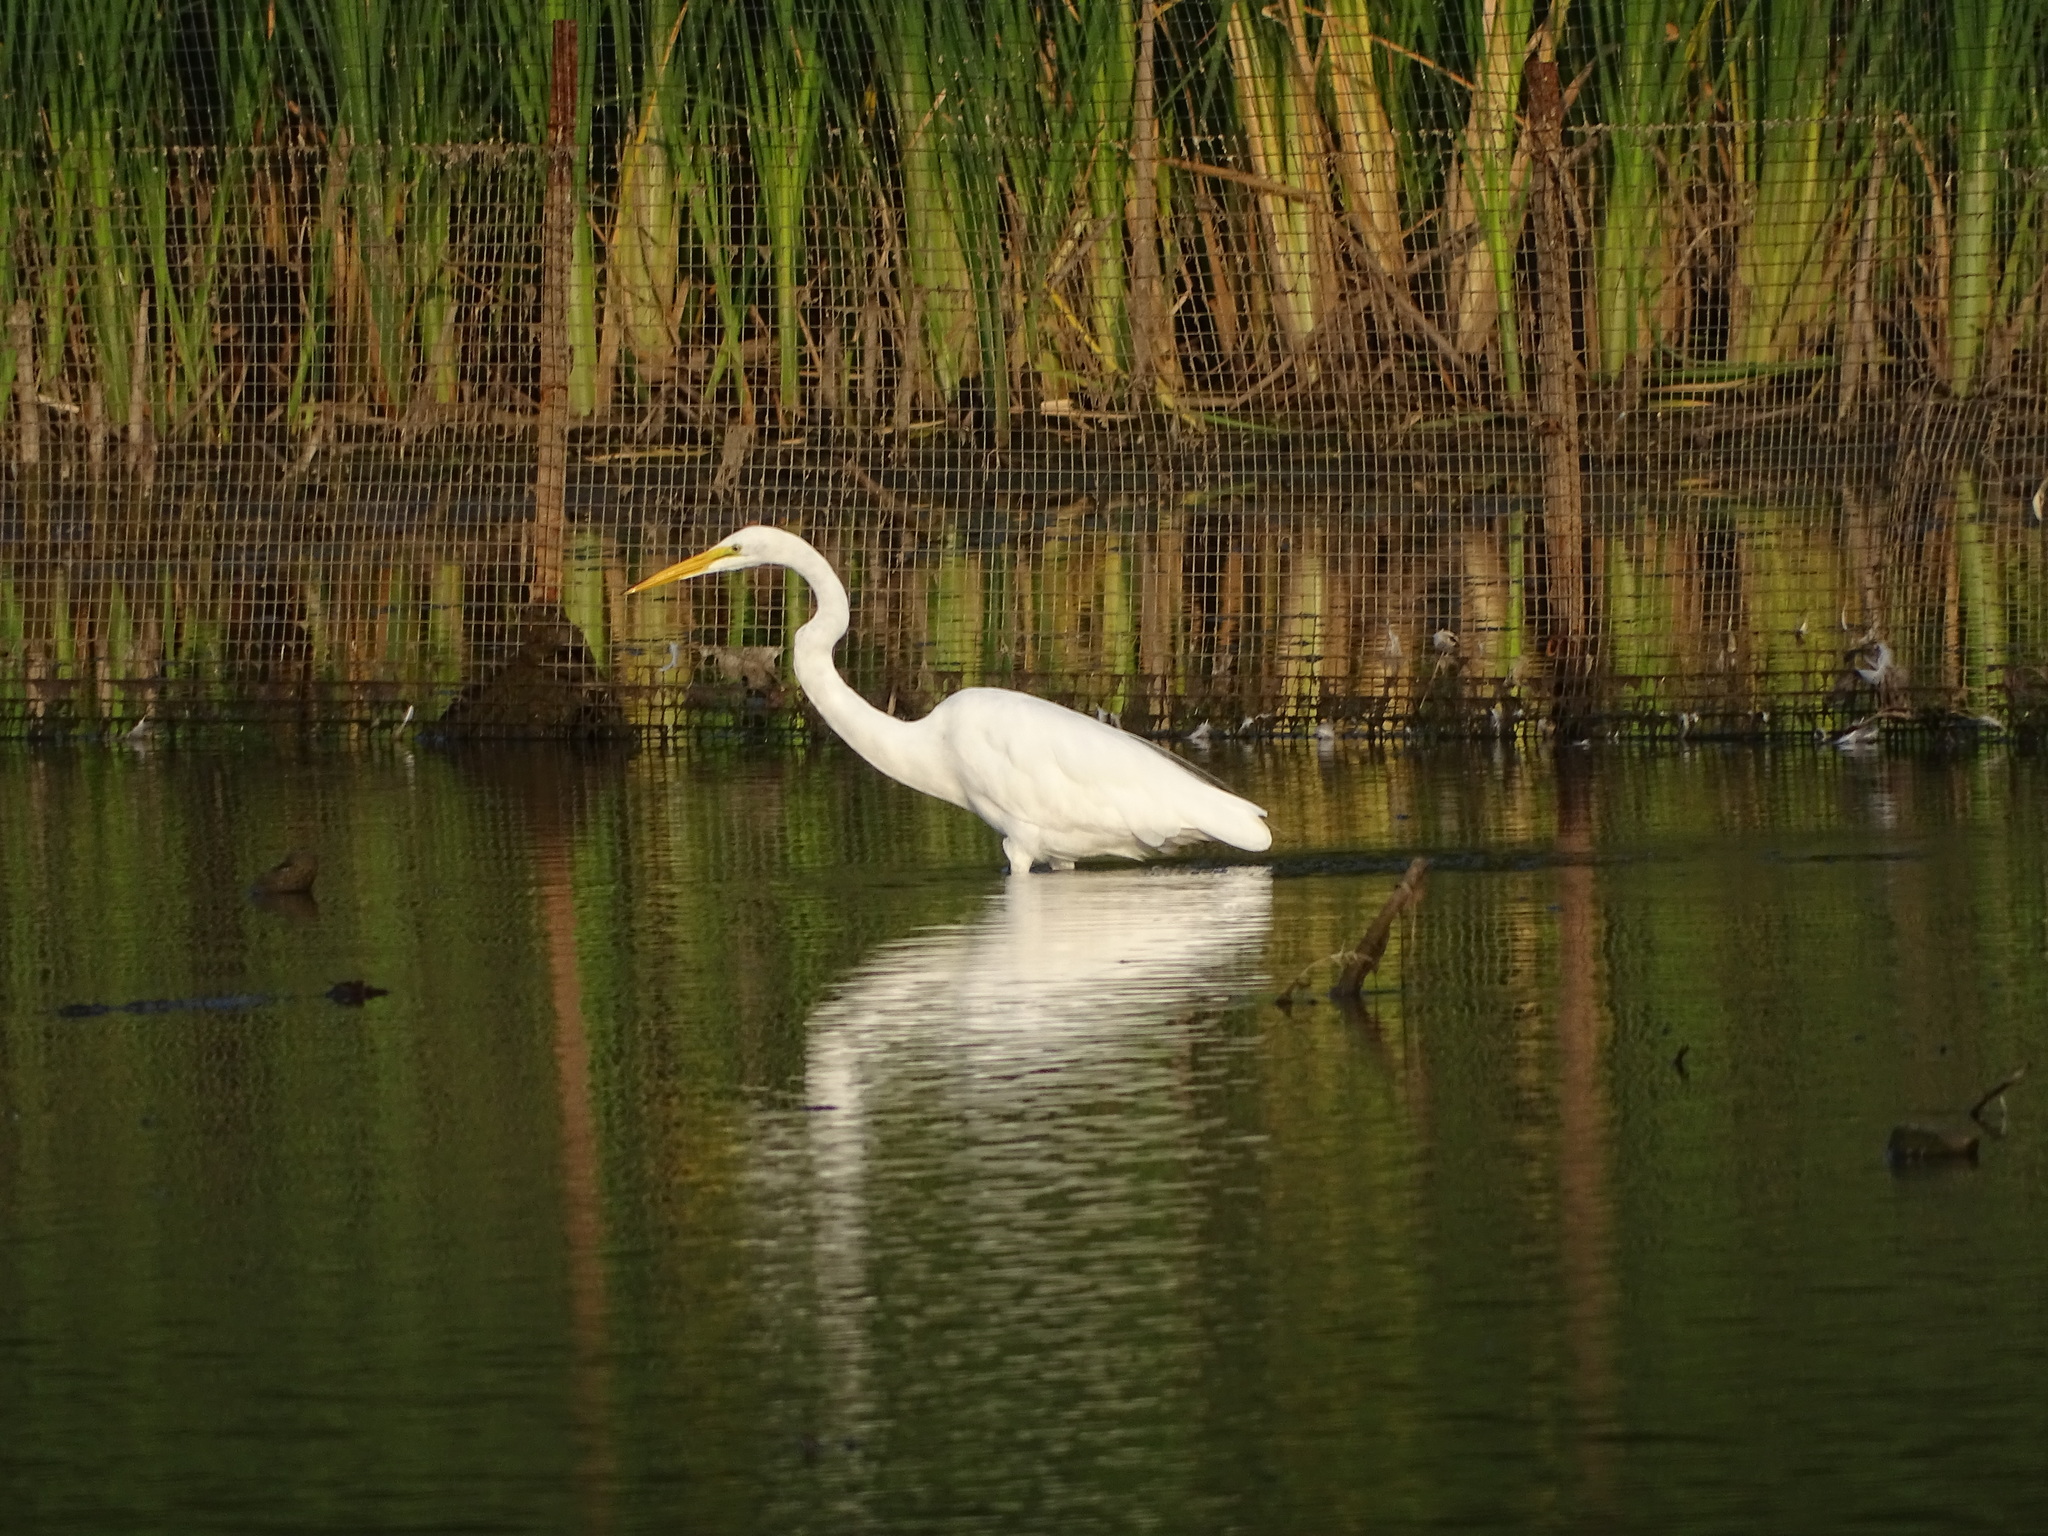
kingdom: Animalia
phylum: Chordata
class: Aves
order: Pelecaniformes
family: Ardeidae
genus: Ardea
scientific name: Ardea alba
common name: Great egret
